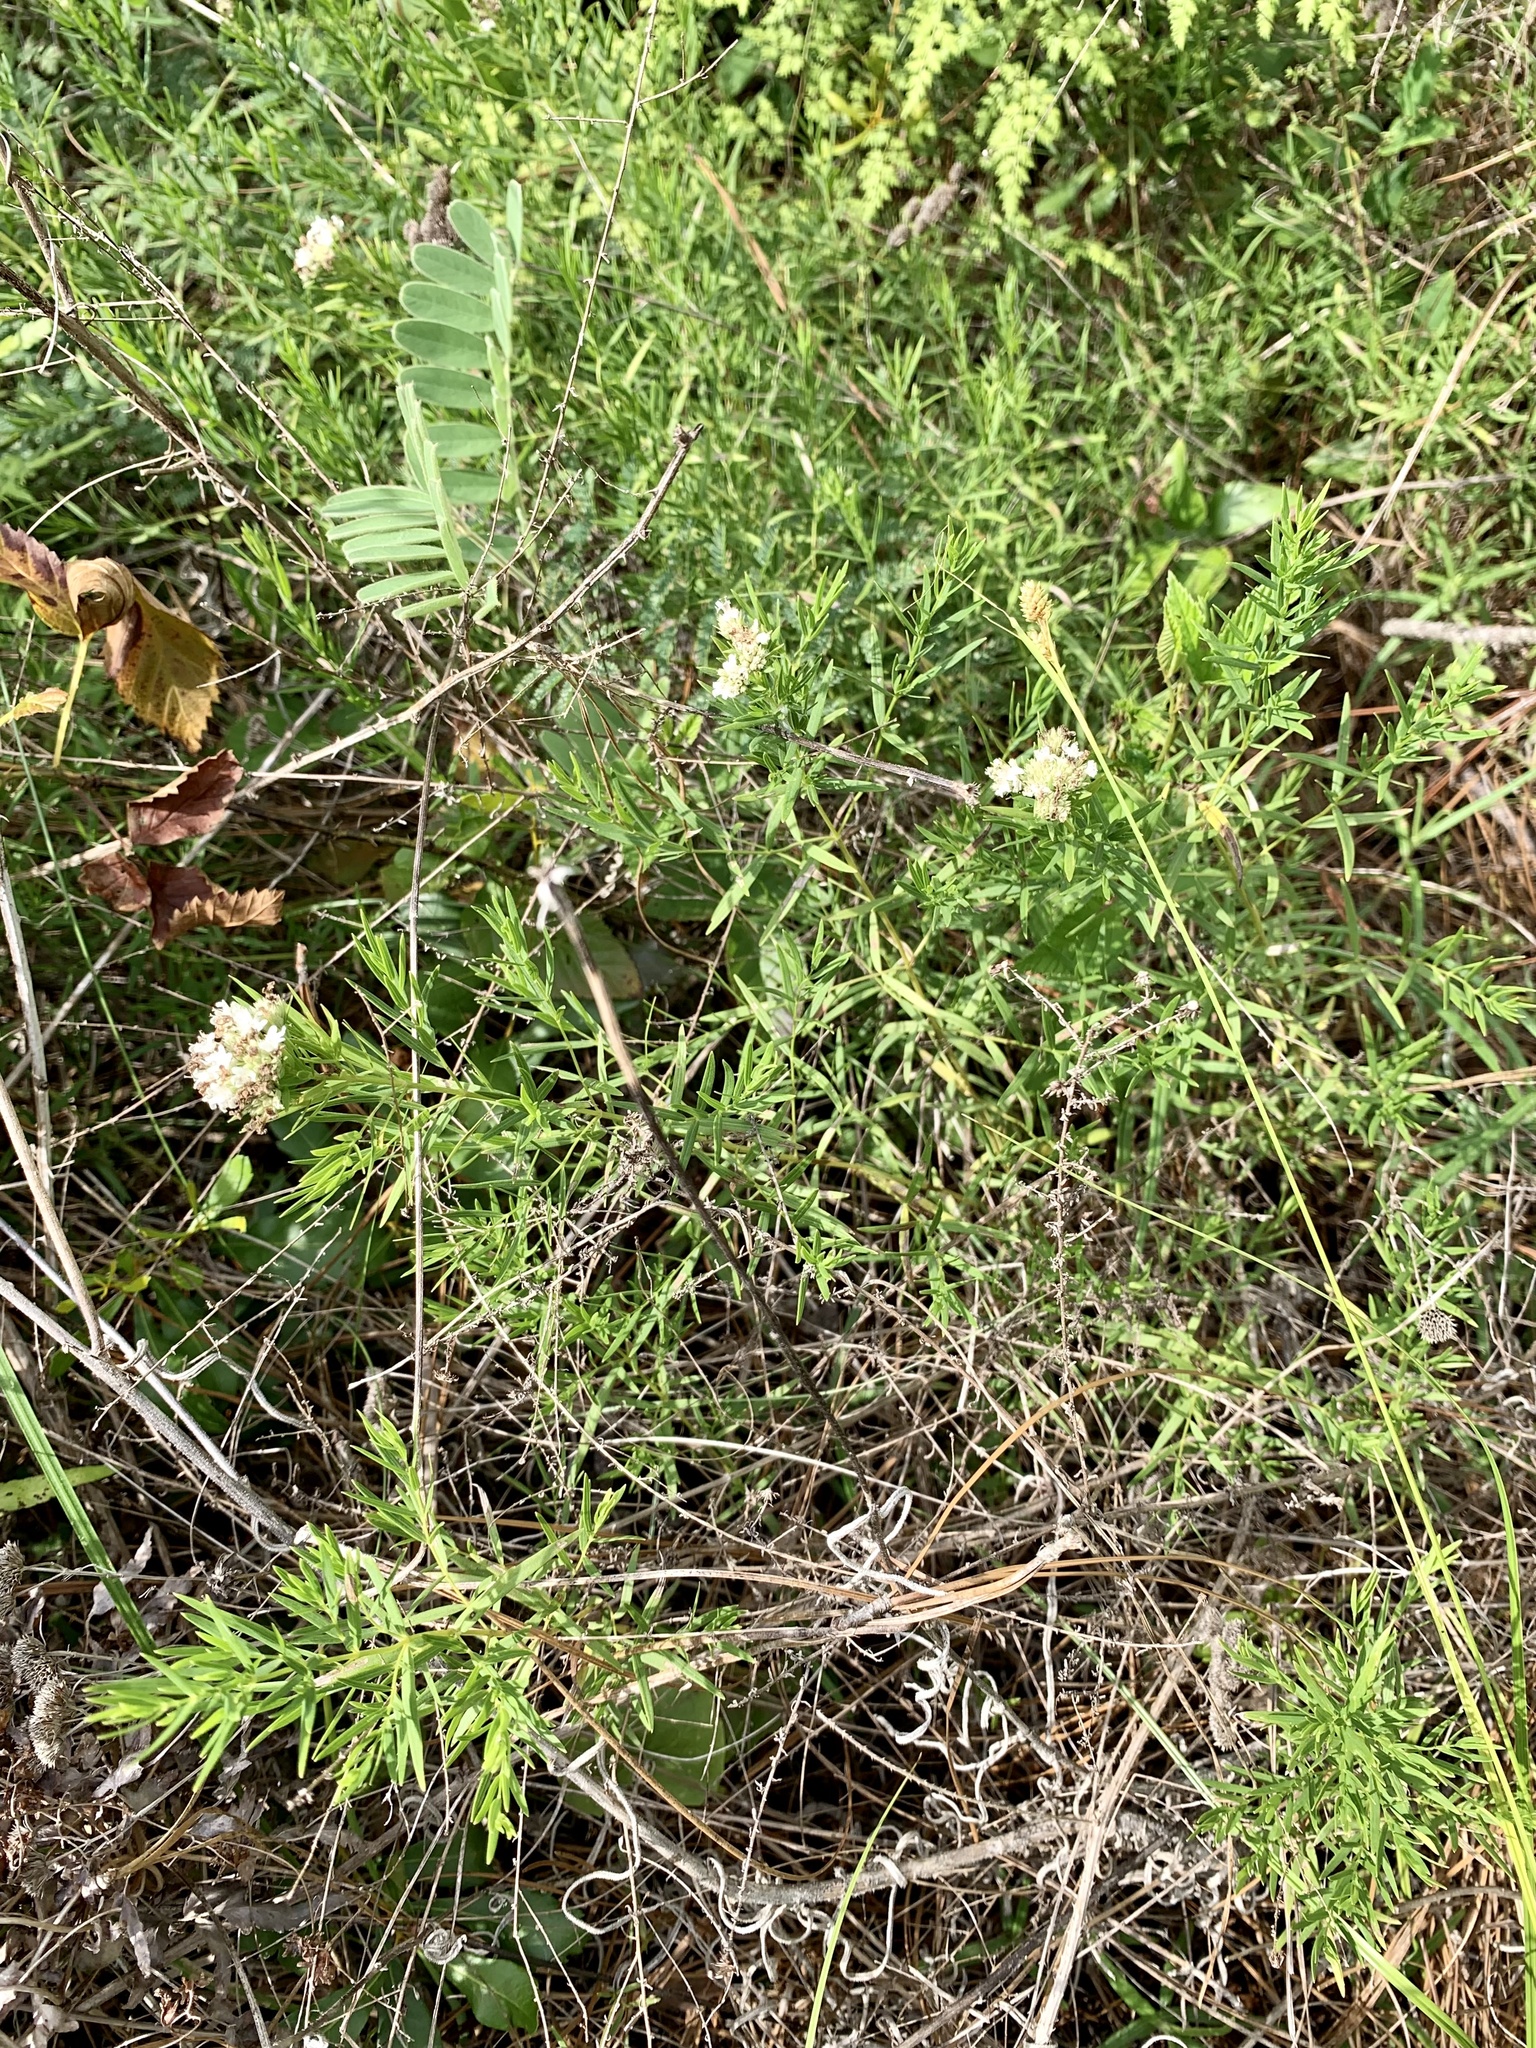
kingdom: Plantae
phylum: Tracheophyta
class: Magnoliopsida
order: Lamiales
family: Lamiaceae
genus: Pycnanthemum
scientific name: Pycnanthemum tenuifolium
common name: Narrow-leaf mountain-mint
